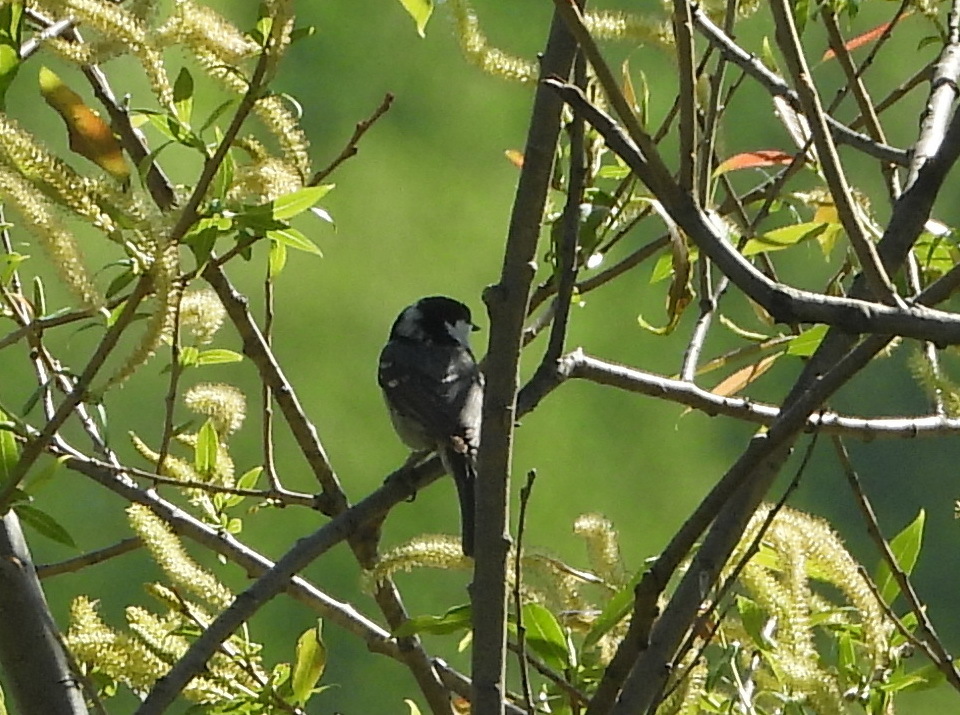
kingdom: Animalia
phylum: Chordata
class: Aves
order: Passeriformes
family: Paridae
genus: Periparus
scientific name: Periparus ater
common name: Coal tit
